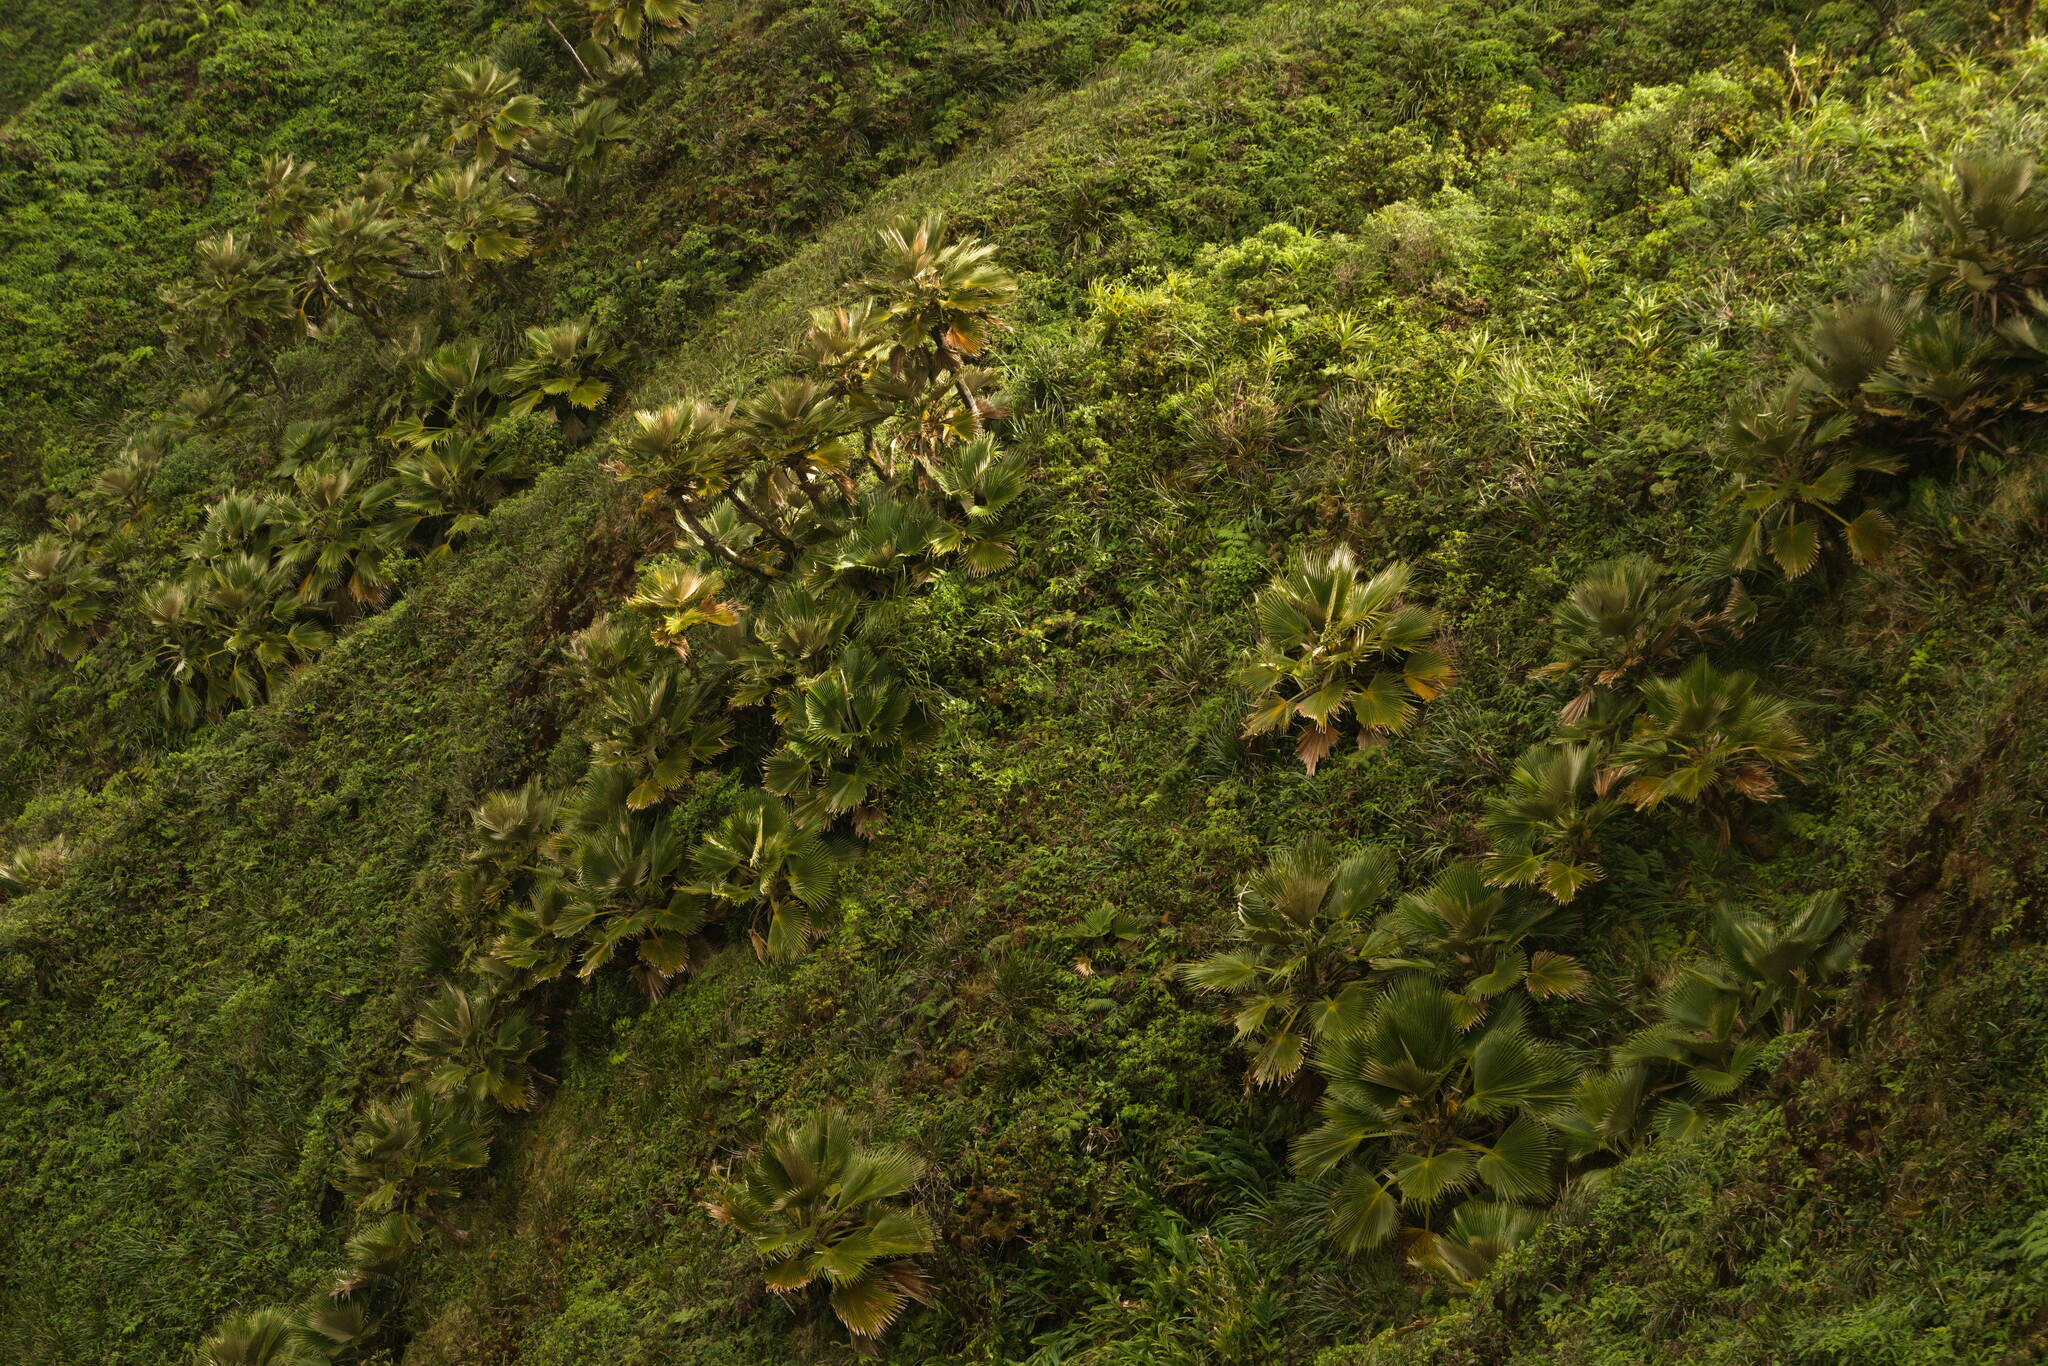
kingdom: Plantae
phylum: Tracheophyta
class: Liliopsida
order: Arecales
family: Arecaceae
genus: Pritchardia
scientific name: Pritchardia martii
